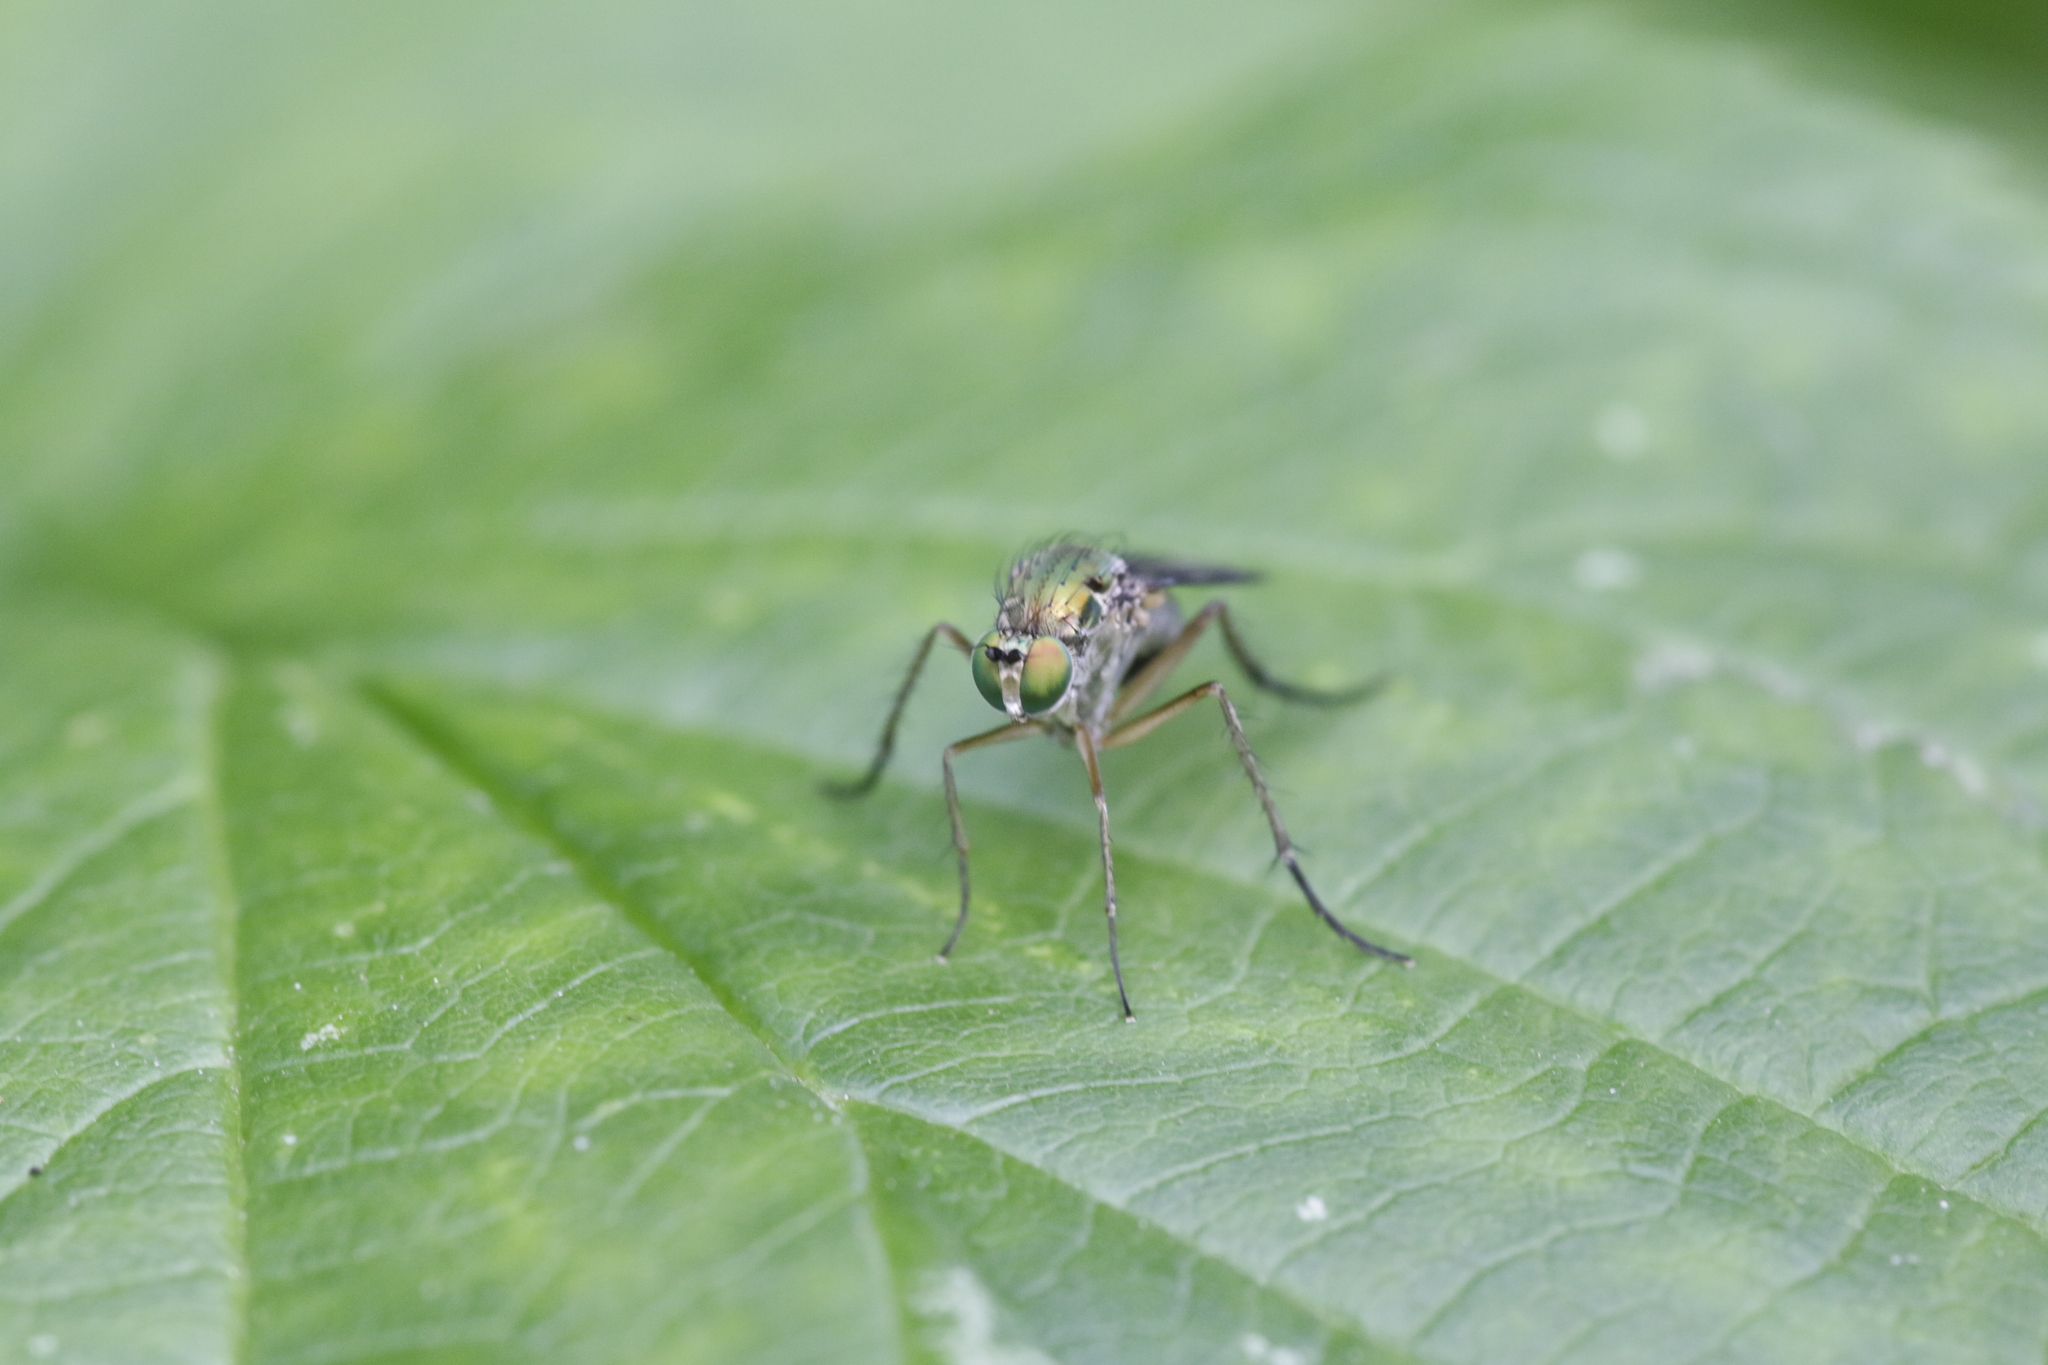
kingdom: Animalia
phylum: Arthropoda
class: Insecta
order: Diptera
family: Dolichopodidae
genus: Poecilobothrus
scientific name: Poecilobothrus nobilitatus
